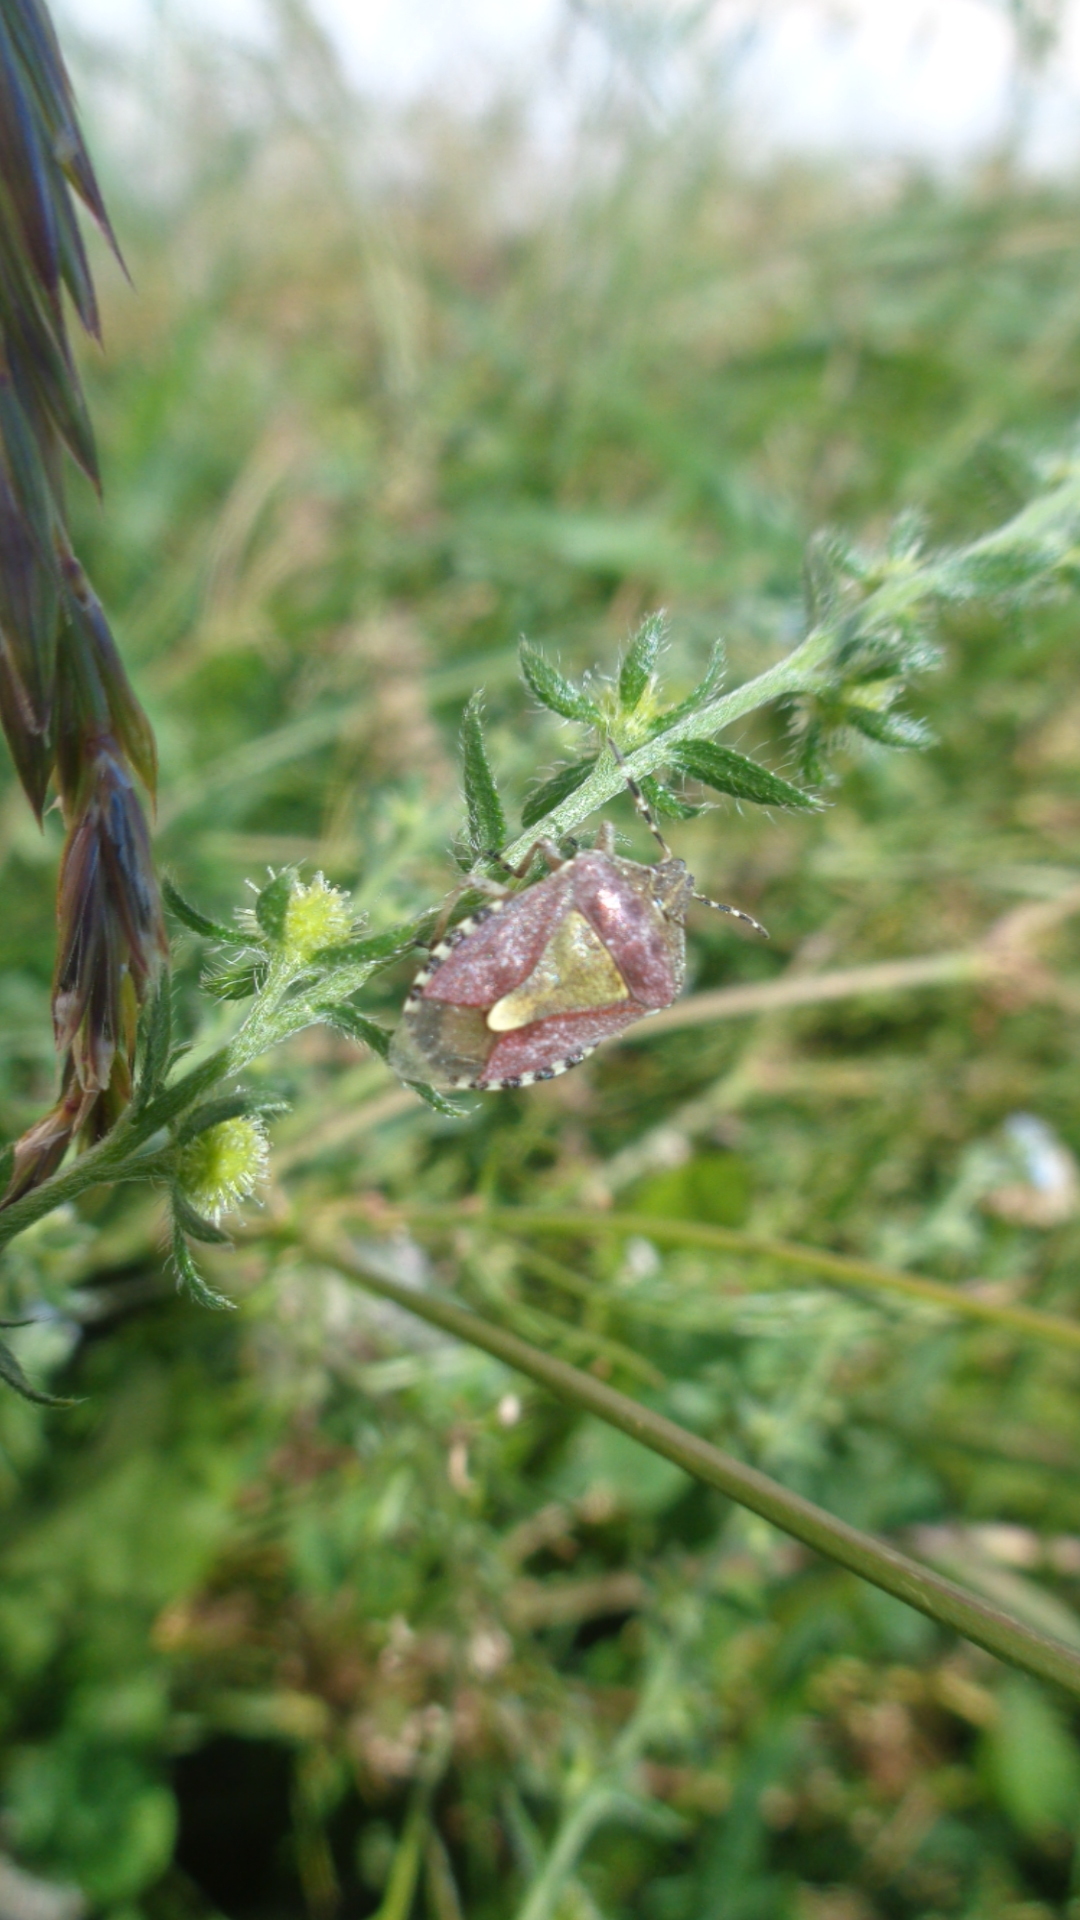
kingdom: Animalia
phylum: Arthropoda
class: Insecta
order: Hemiptera
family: Pentatomidae
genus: Dolycoris
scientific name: Dolycoris baccarum
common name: Sloe bug
